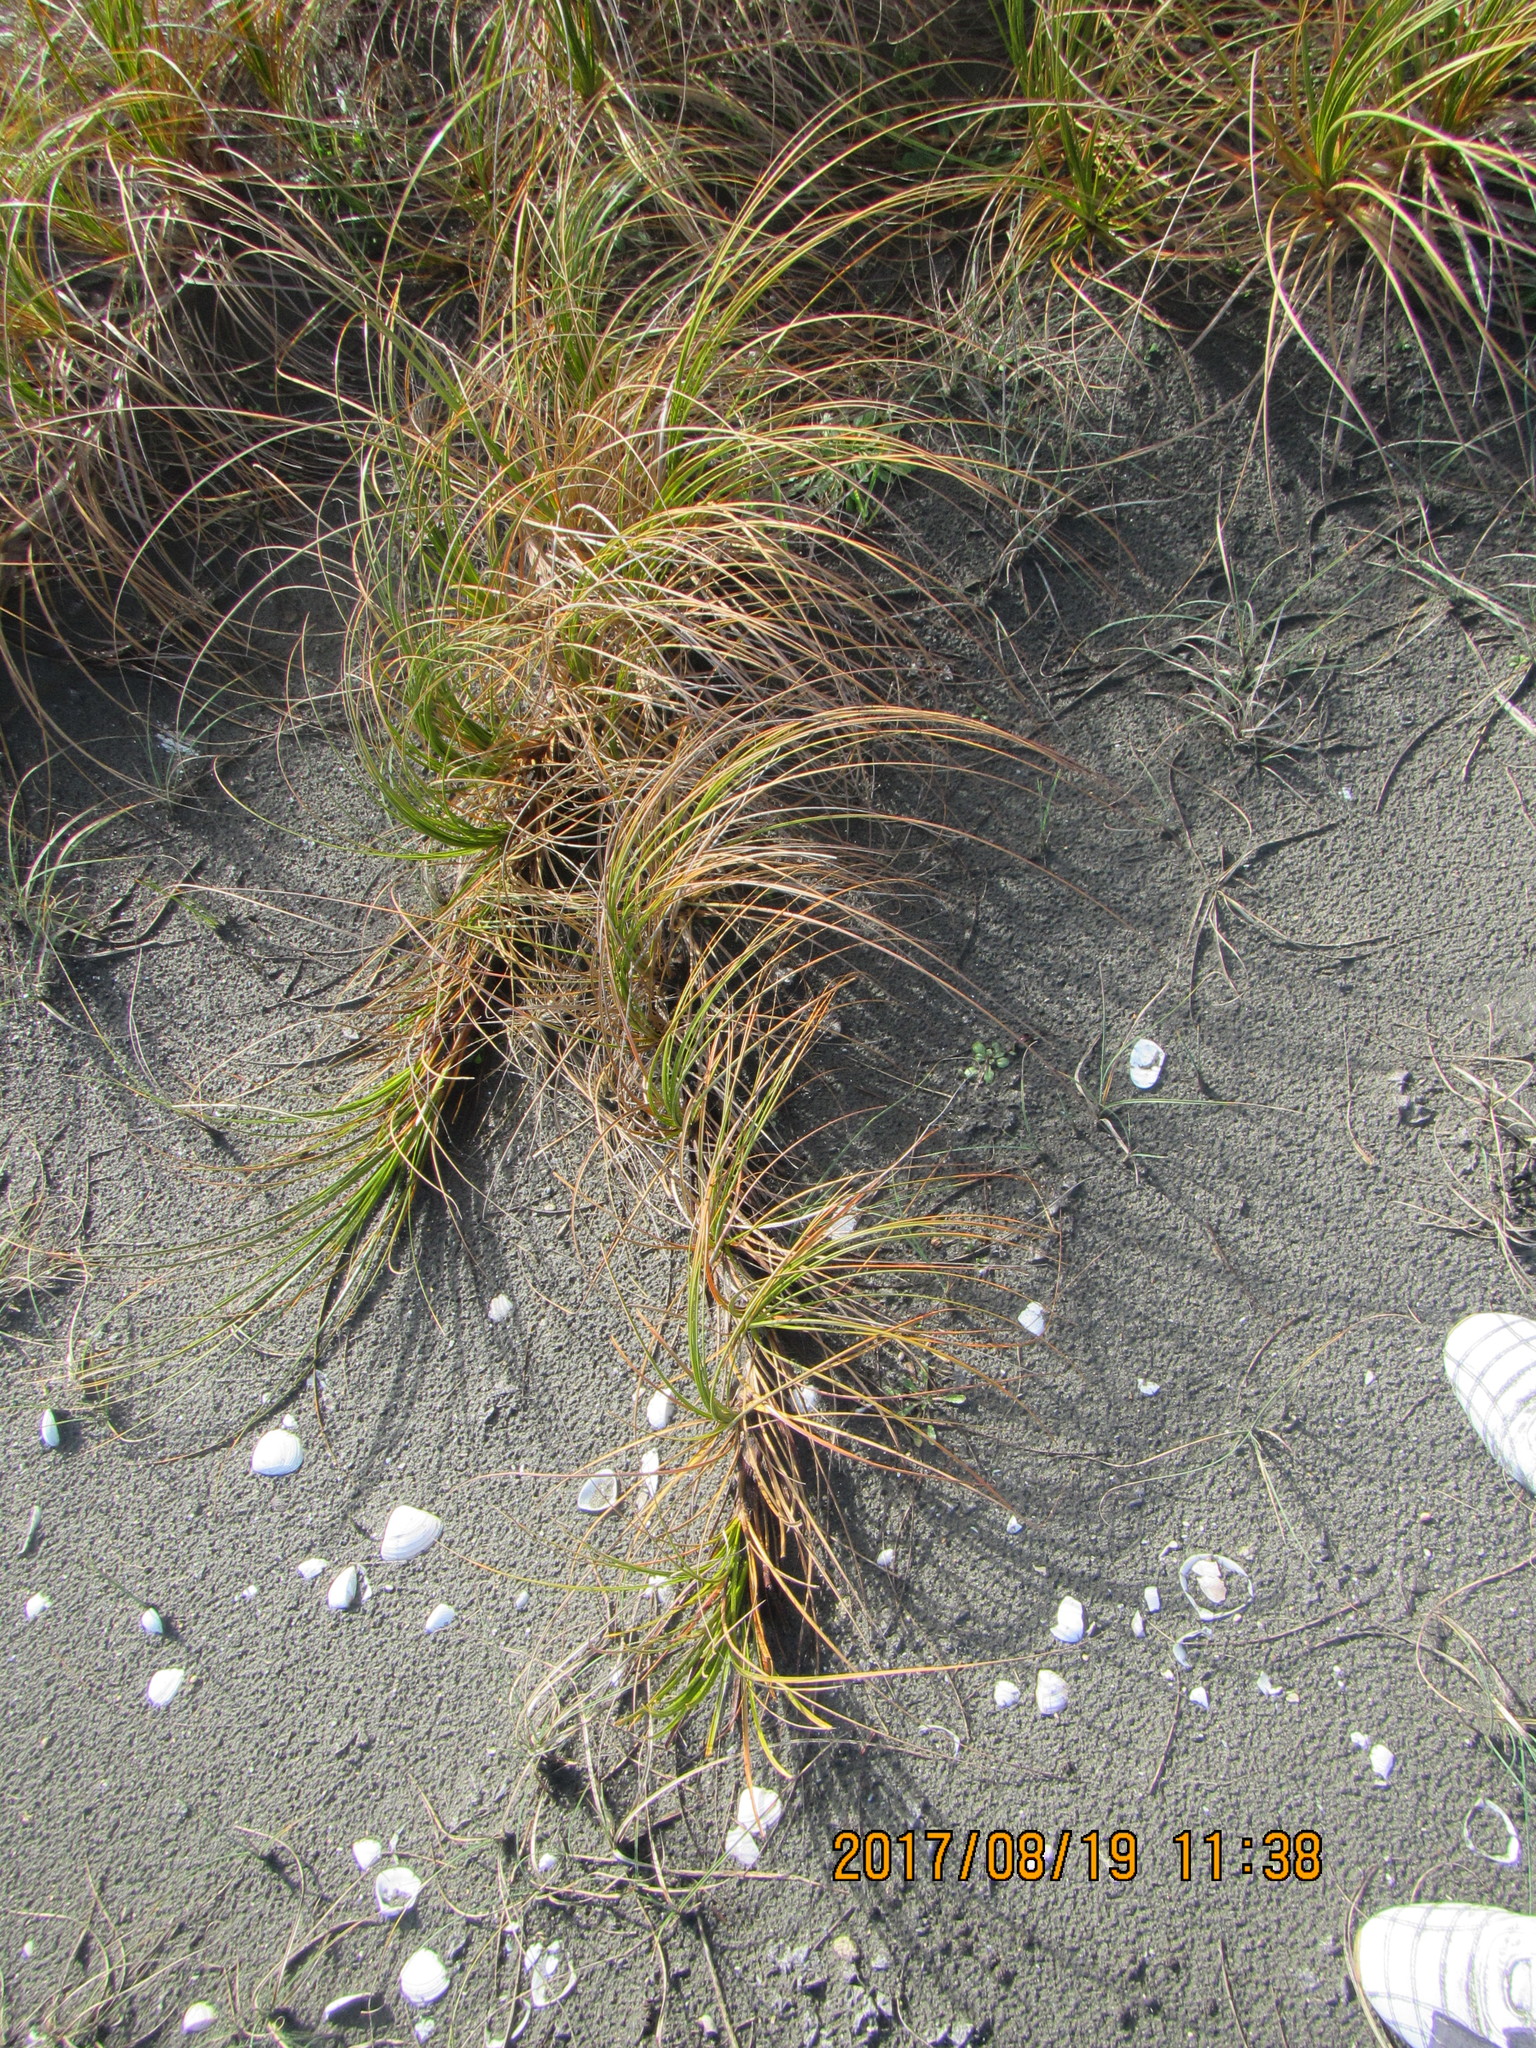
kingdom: Plantae
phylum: Tracheophyta
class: Liliopsida
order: Poales
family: Cyperaceae
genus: Ficinia
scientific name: Ficinia spiralis
